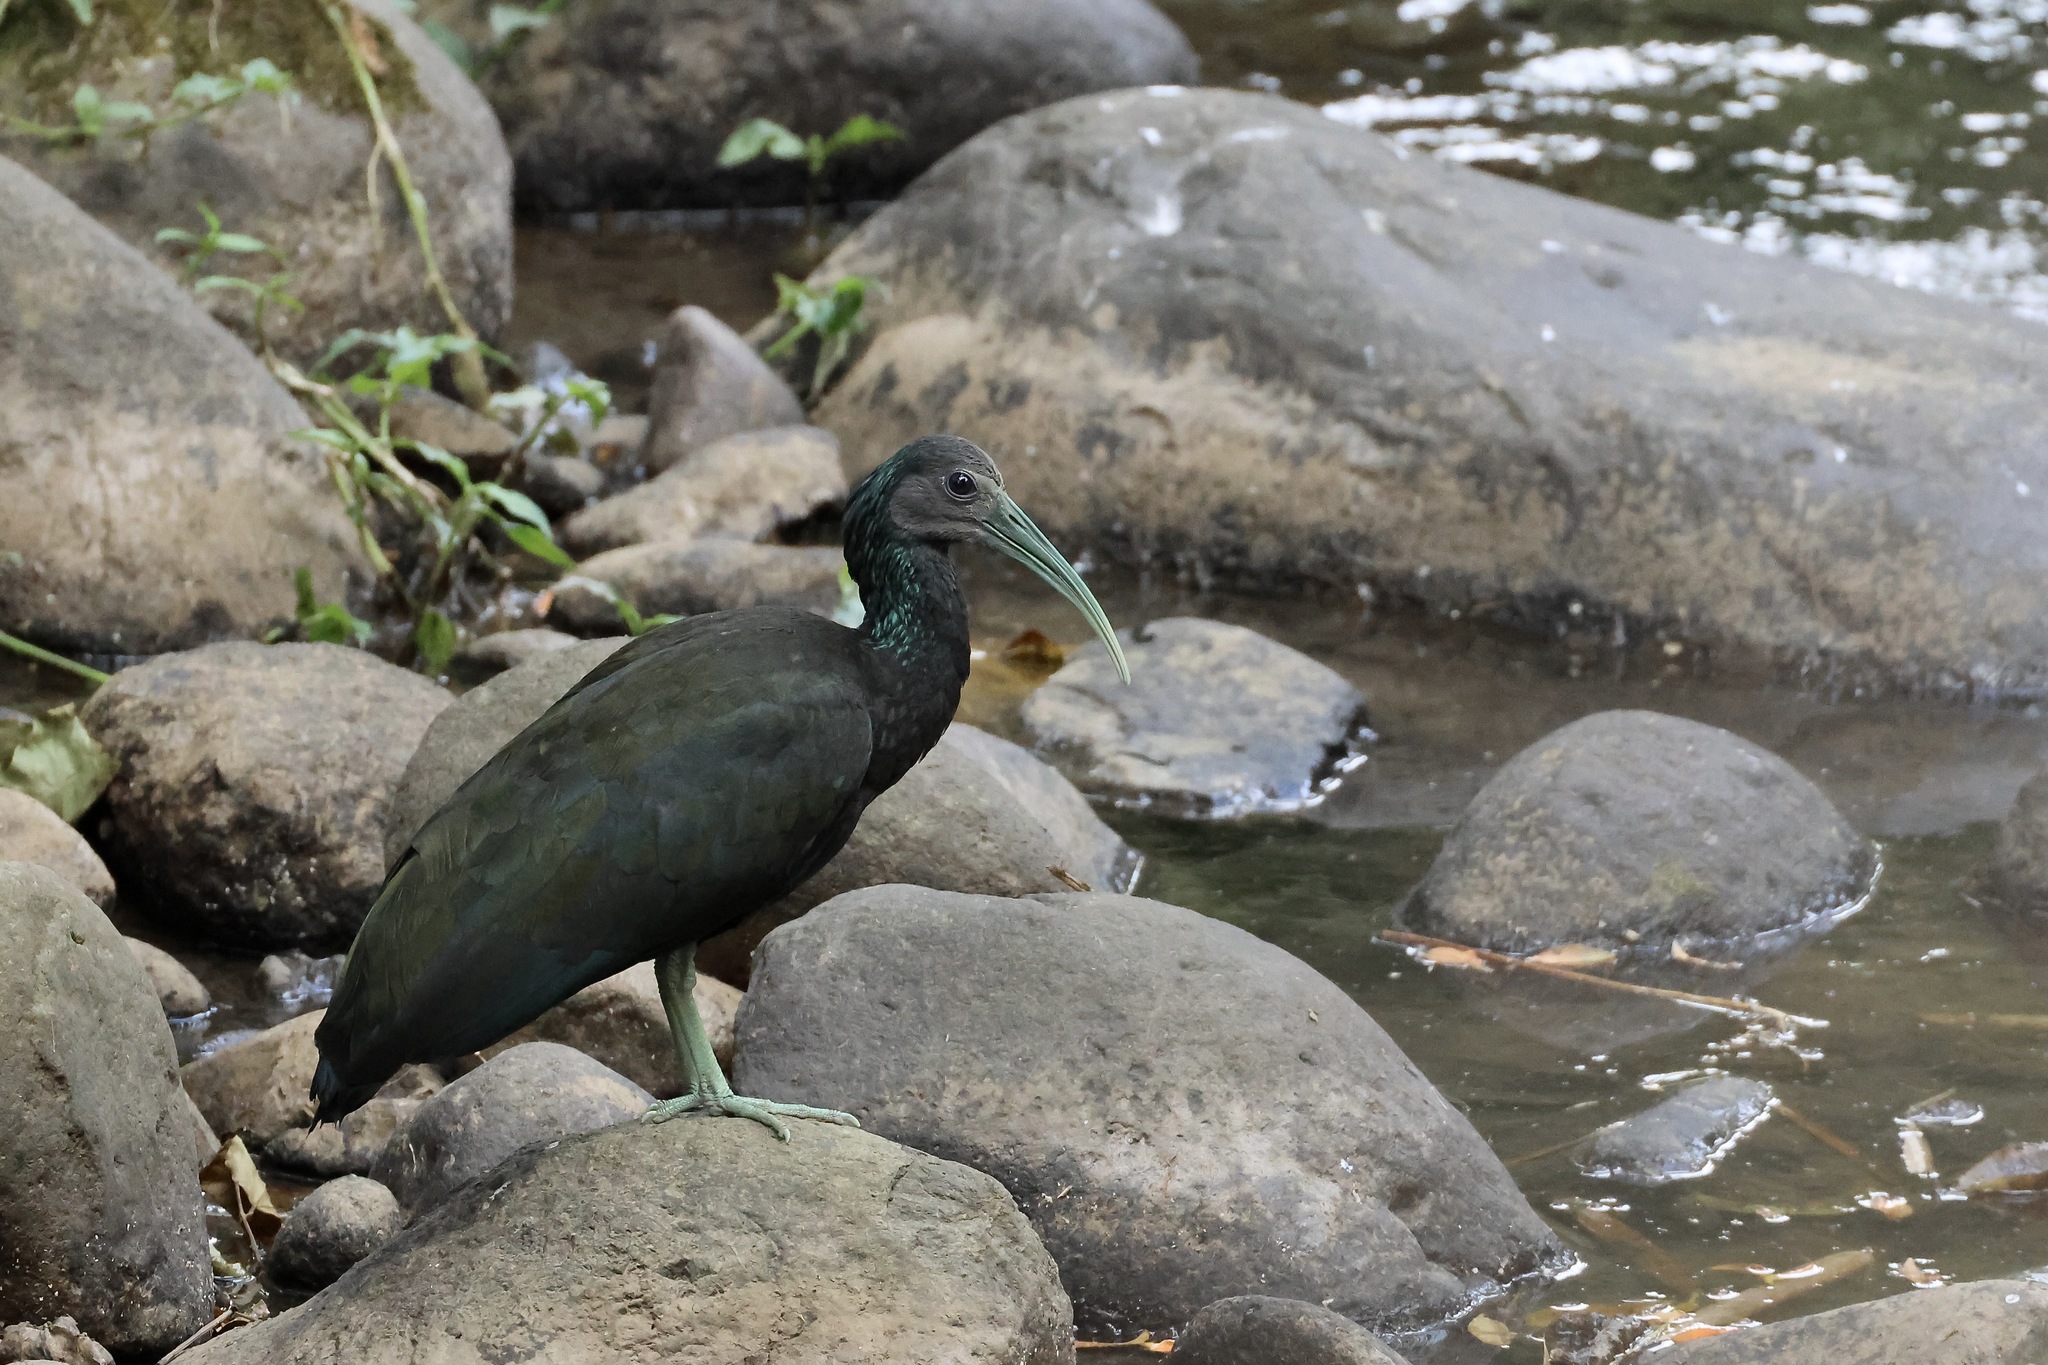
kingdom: Animalia
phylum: Chordata
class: Aves
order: Pelecaniformes
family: Threskiornithidae
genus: Mesembrinibis
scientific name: Mesembrinibis cayennensis
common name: Green ibis
